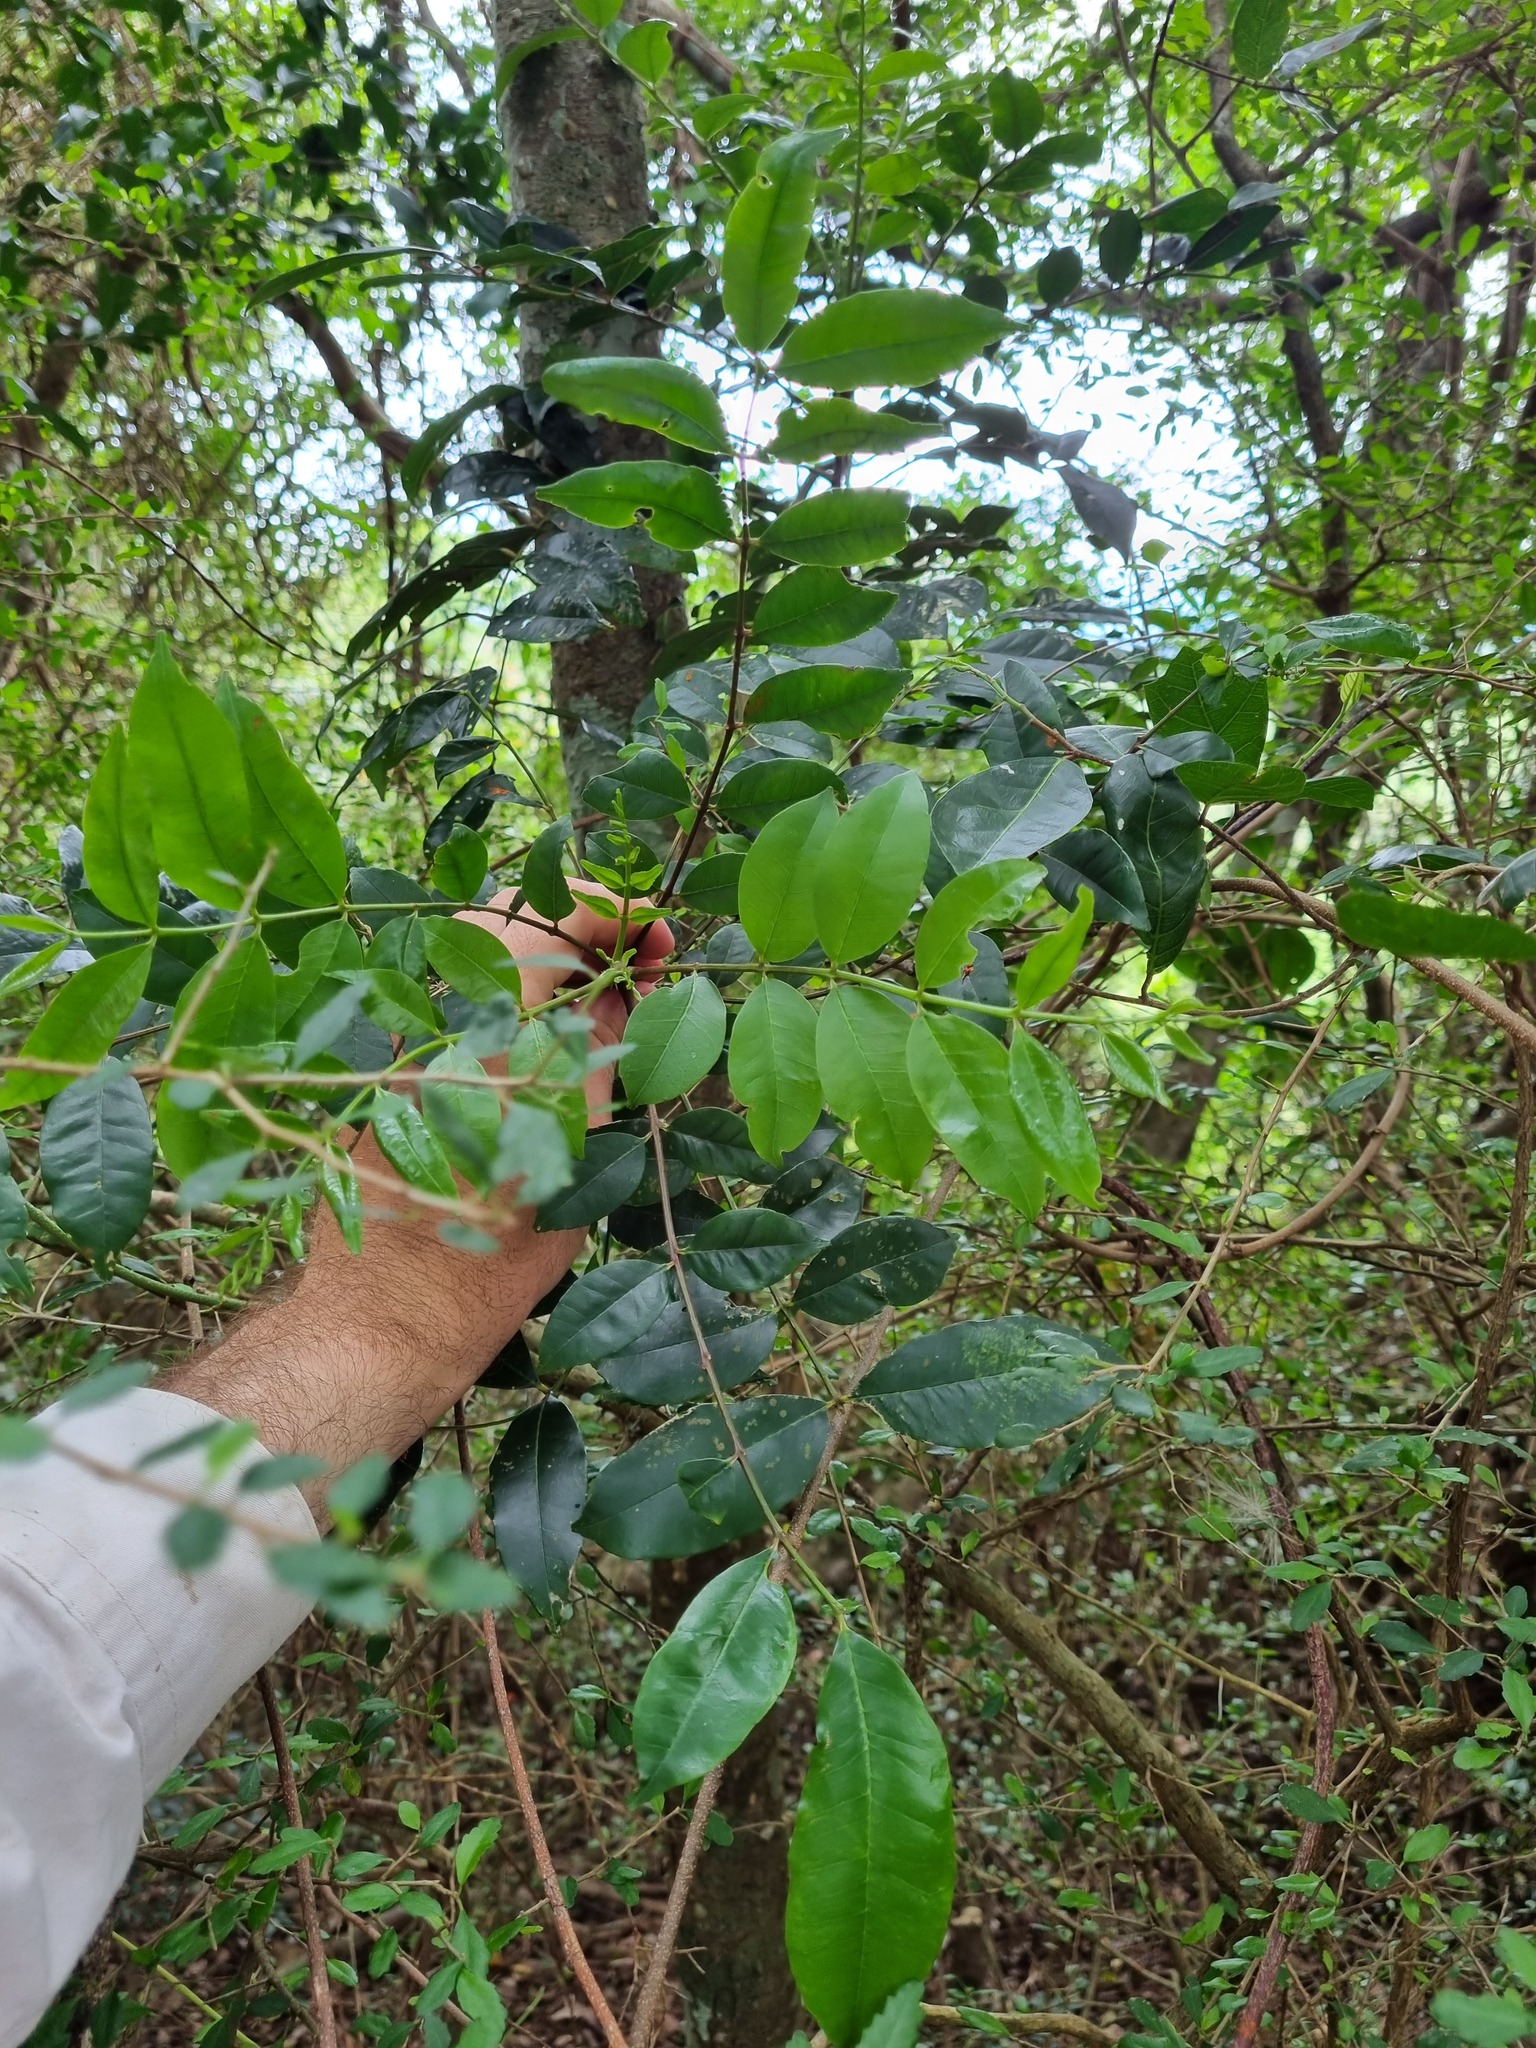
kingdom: Plantae
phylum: Tracheophyta
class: Magnoliopsida
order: Sapindales
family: Rutaceae
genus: Zanthoxylum
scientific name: Zanthoxylum brachyacanthum
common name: Satinwood
